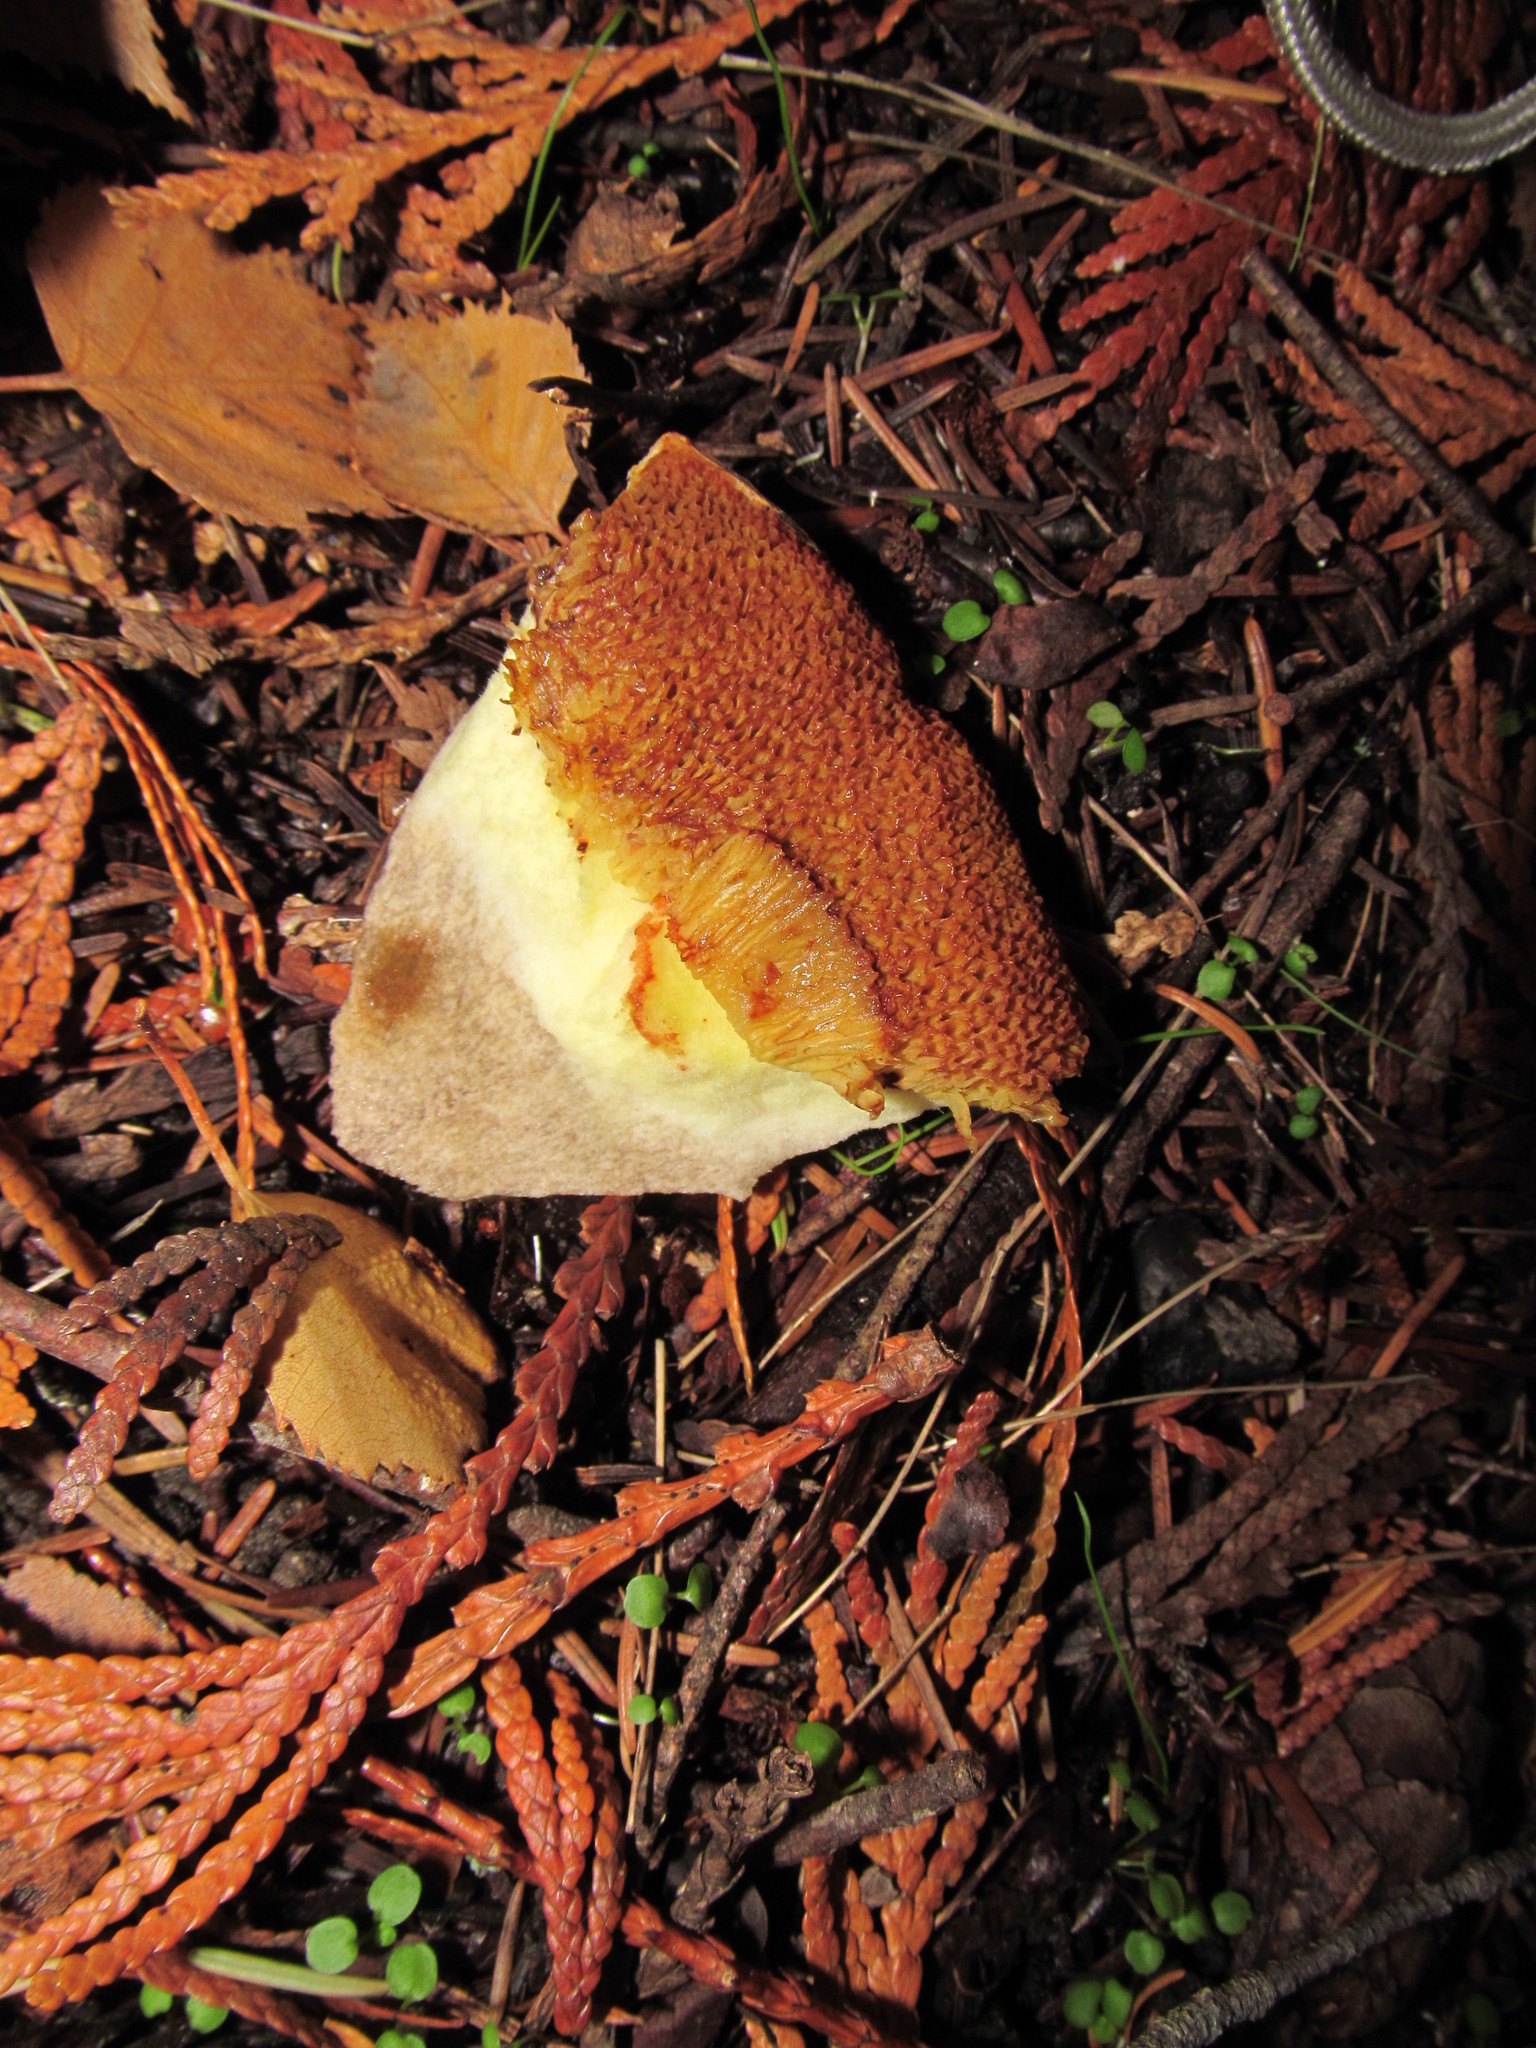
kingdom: Fungi
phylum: Basidiomycota
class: Agaricomycetes
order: Boletales
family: Suillaceae
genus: Suillus
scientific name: Suillus lakei
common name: Western painted suillus
